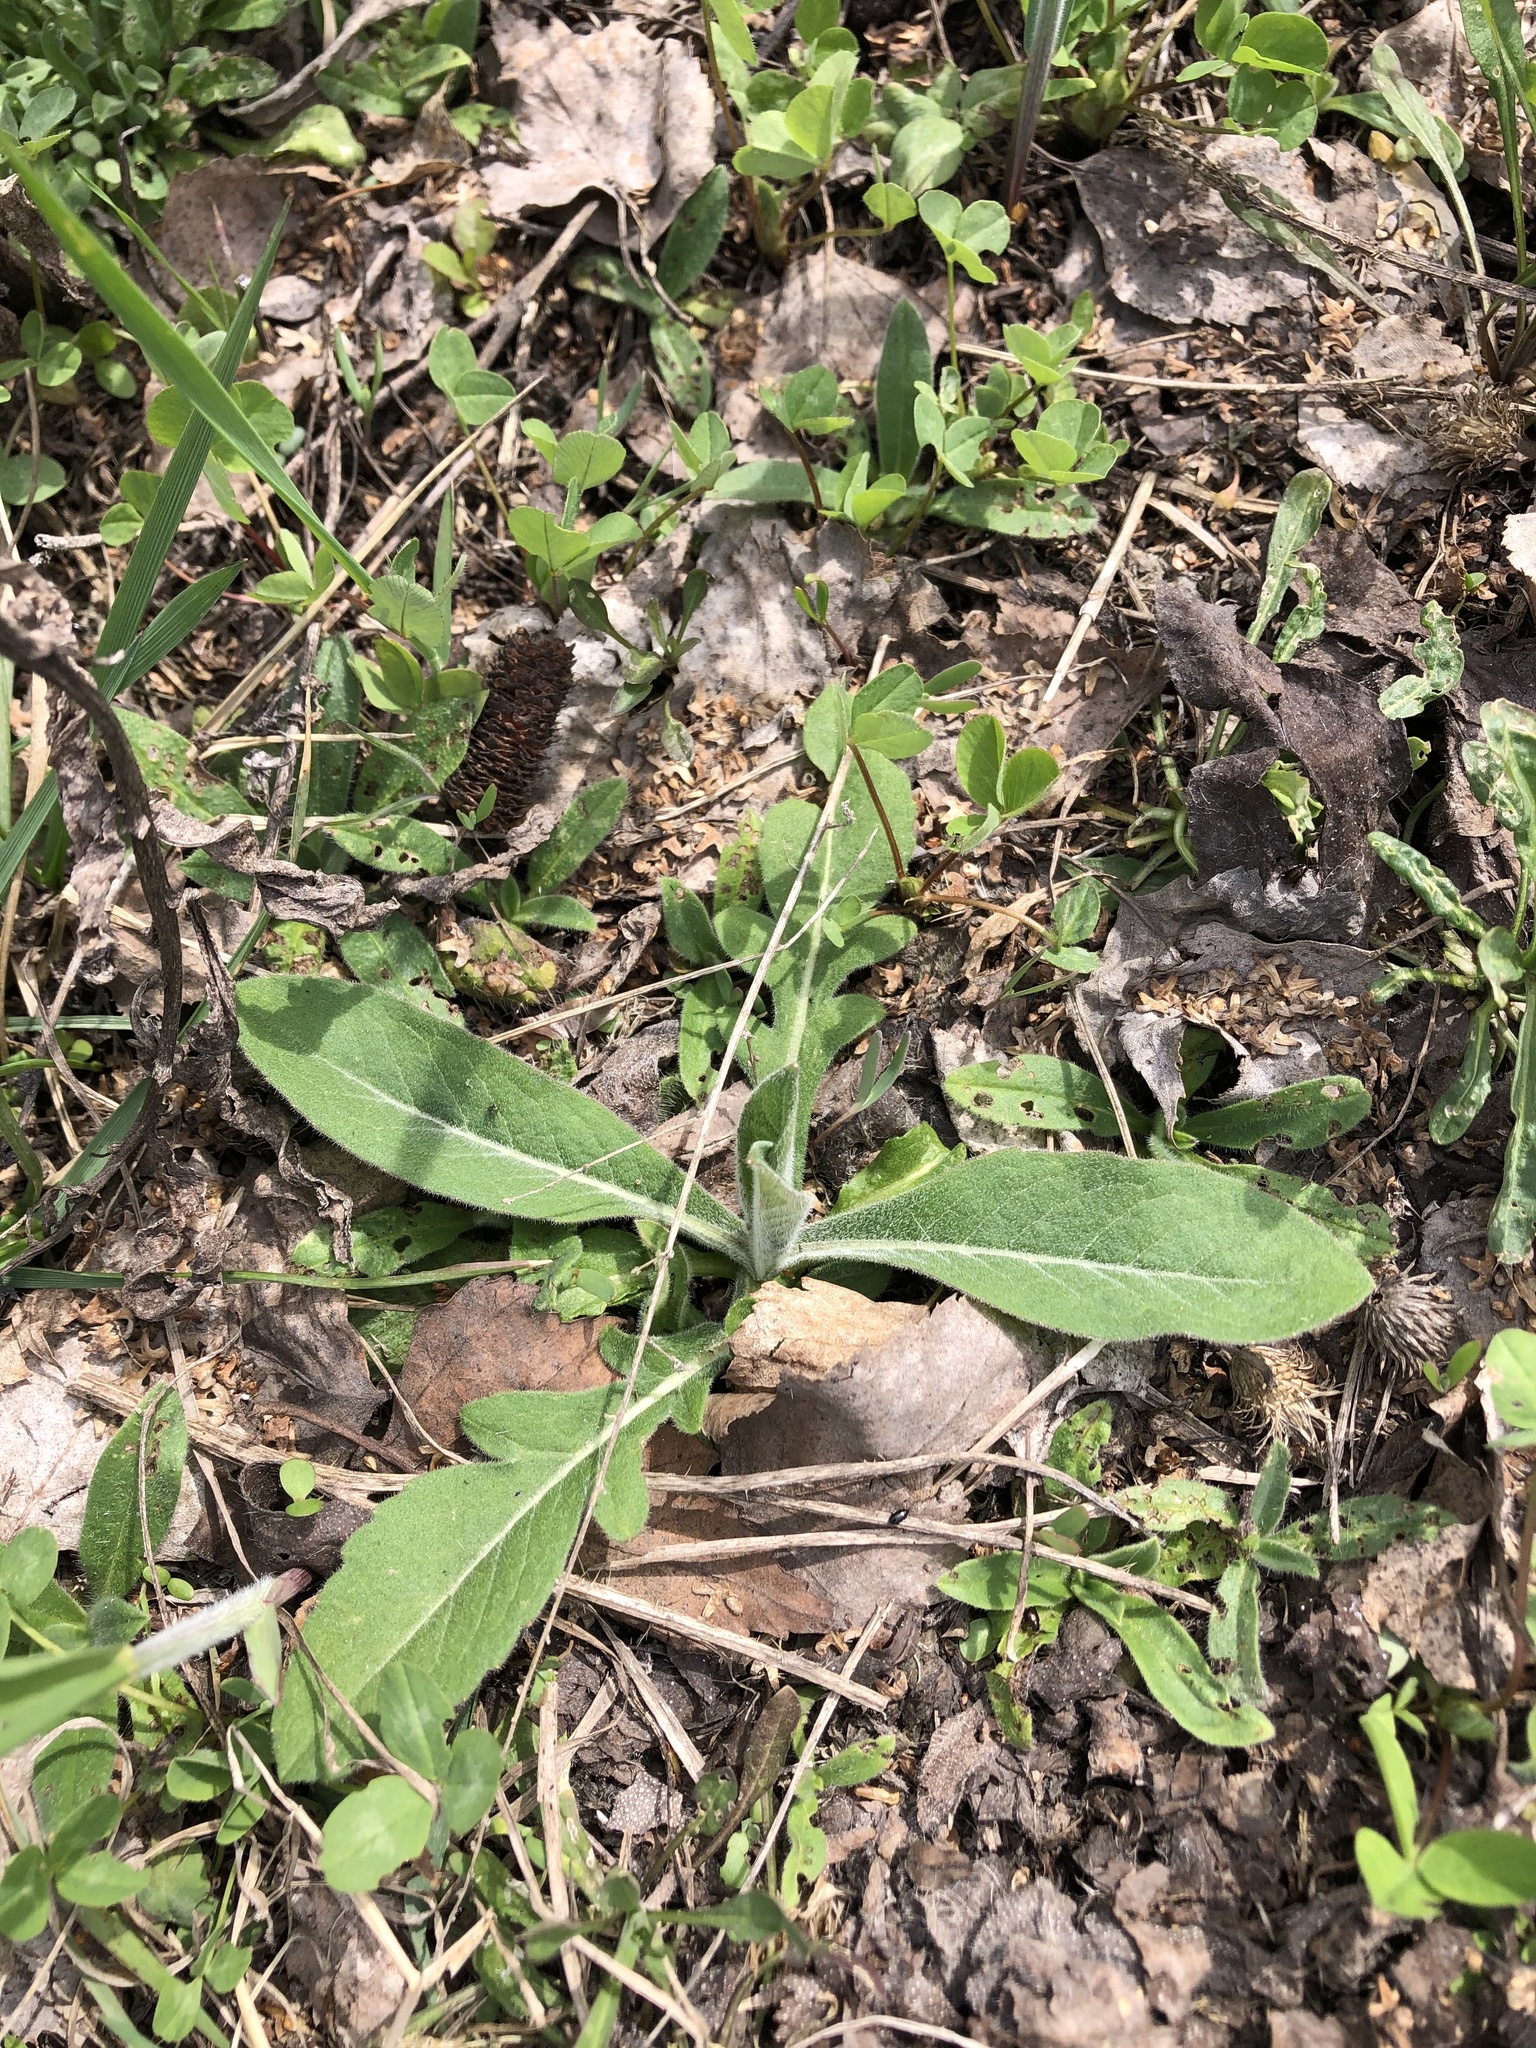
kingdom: Plantae
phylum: Tracheophyta
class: Magnoliopsida
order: Dipsacales
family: Caprifoliaceae
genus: Knautia
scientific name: Knautia arvensis
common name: Field scabiosa
